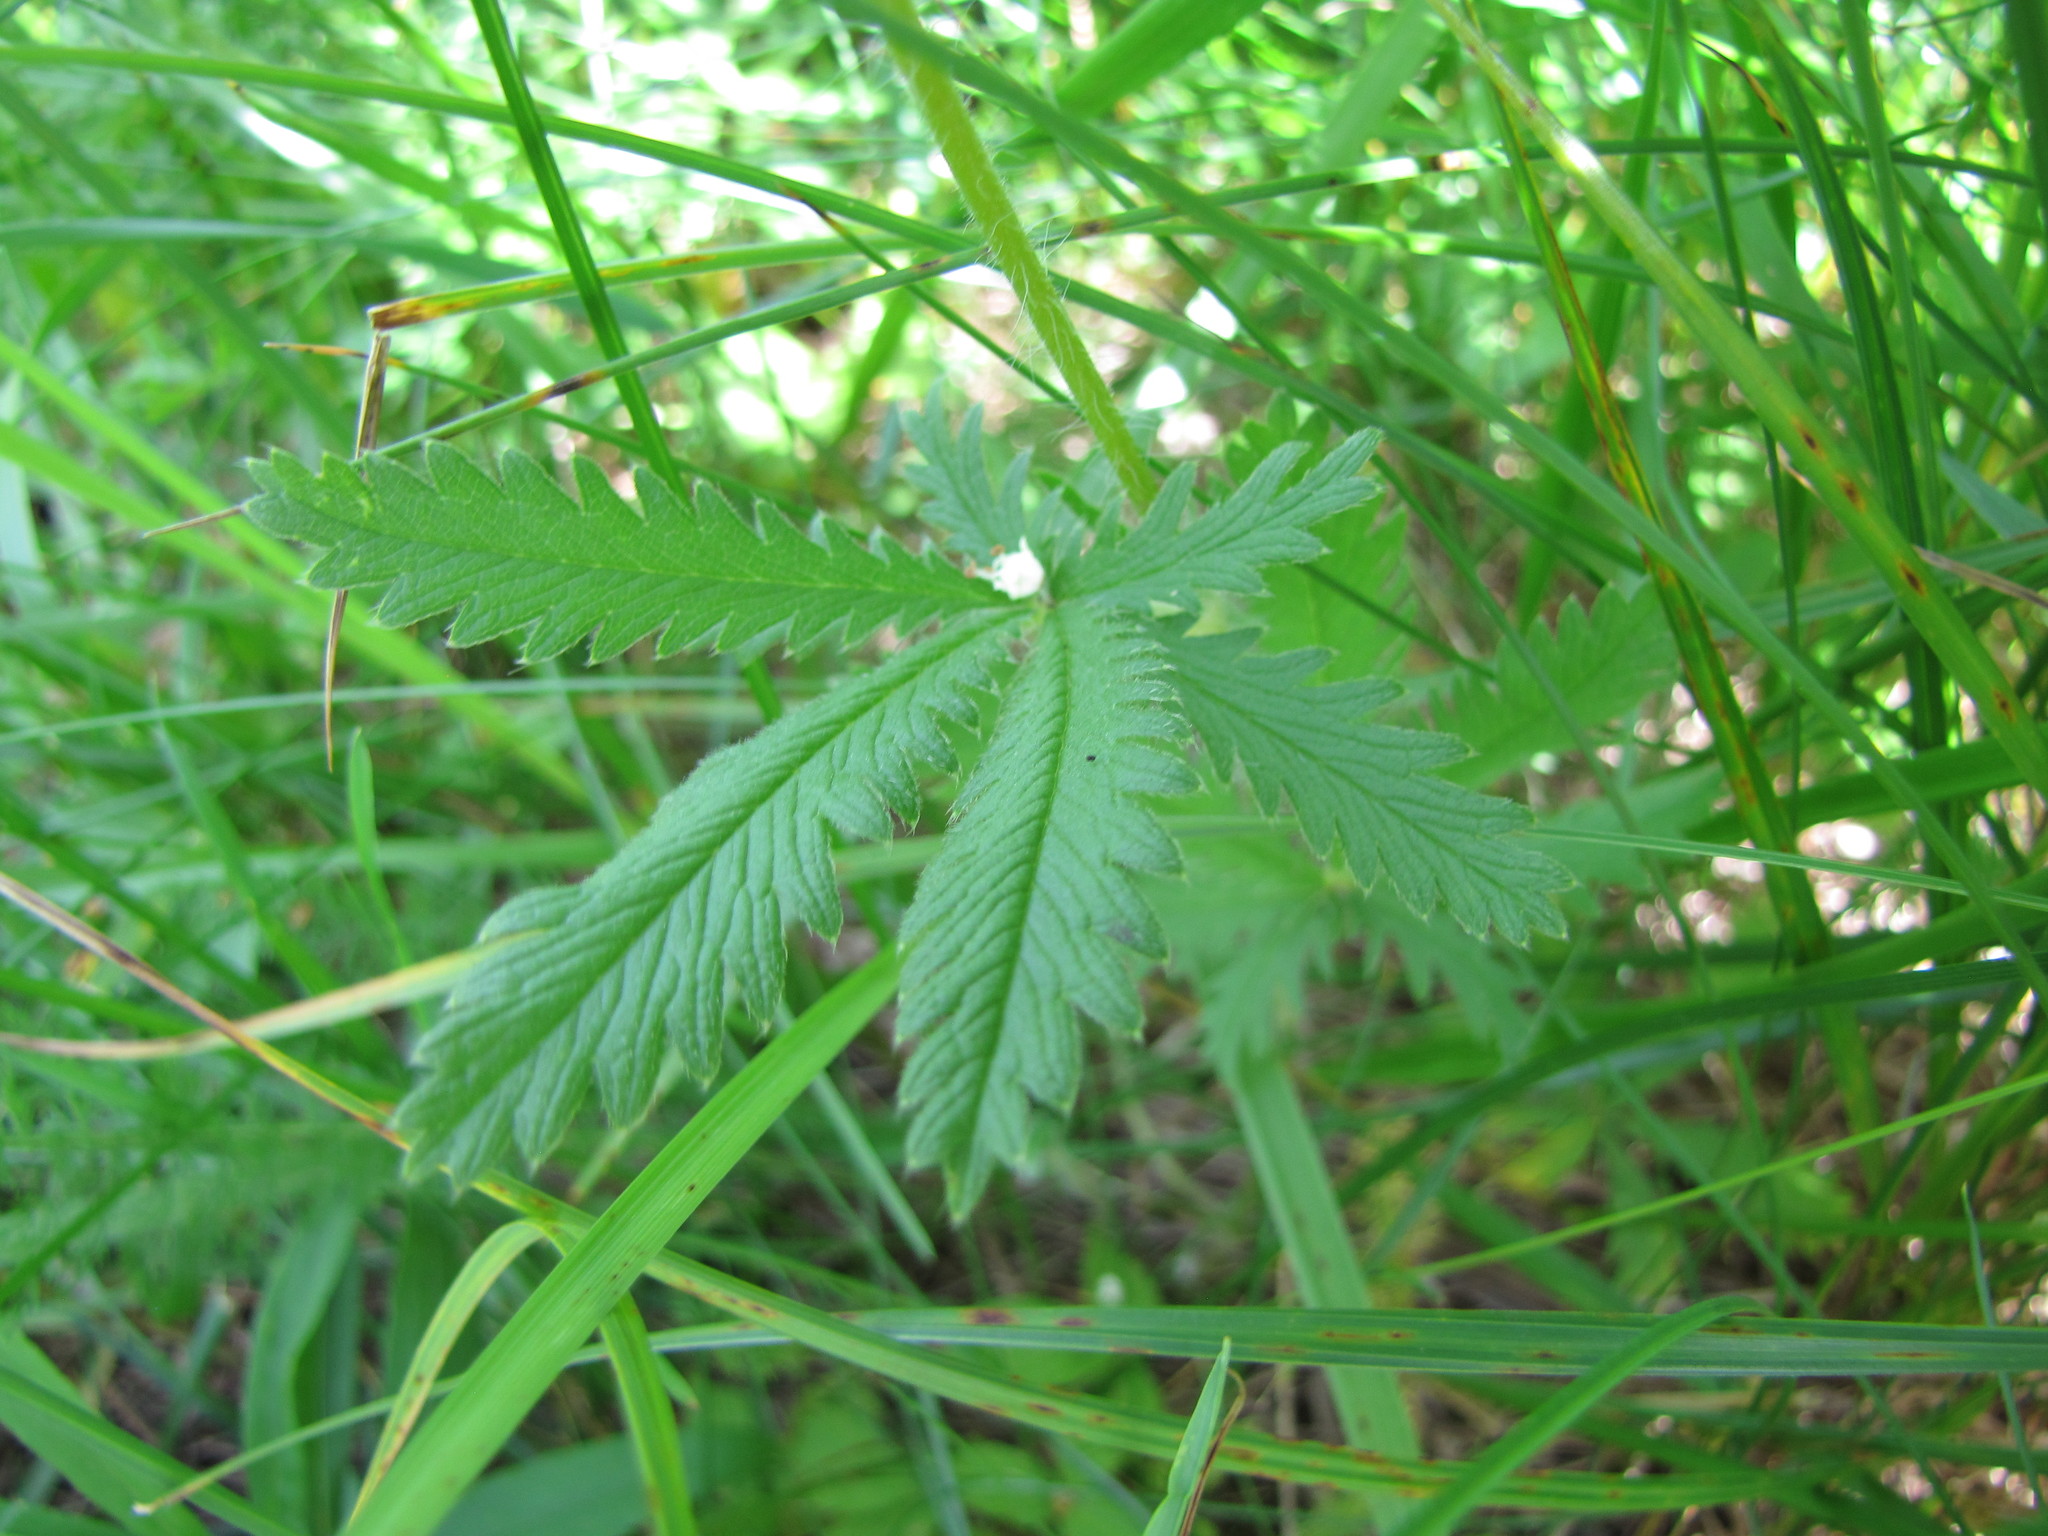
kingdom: Plantae
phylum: Tracheophyta
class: Magnoliopsida
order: Rosales
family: Rosaceae
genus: Potentilla
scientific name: Potentilla recta
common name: Sulphur cinquefoil
